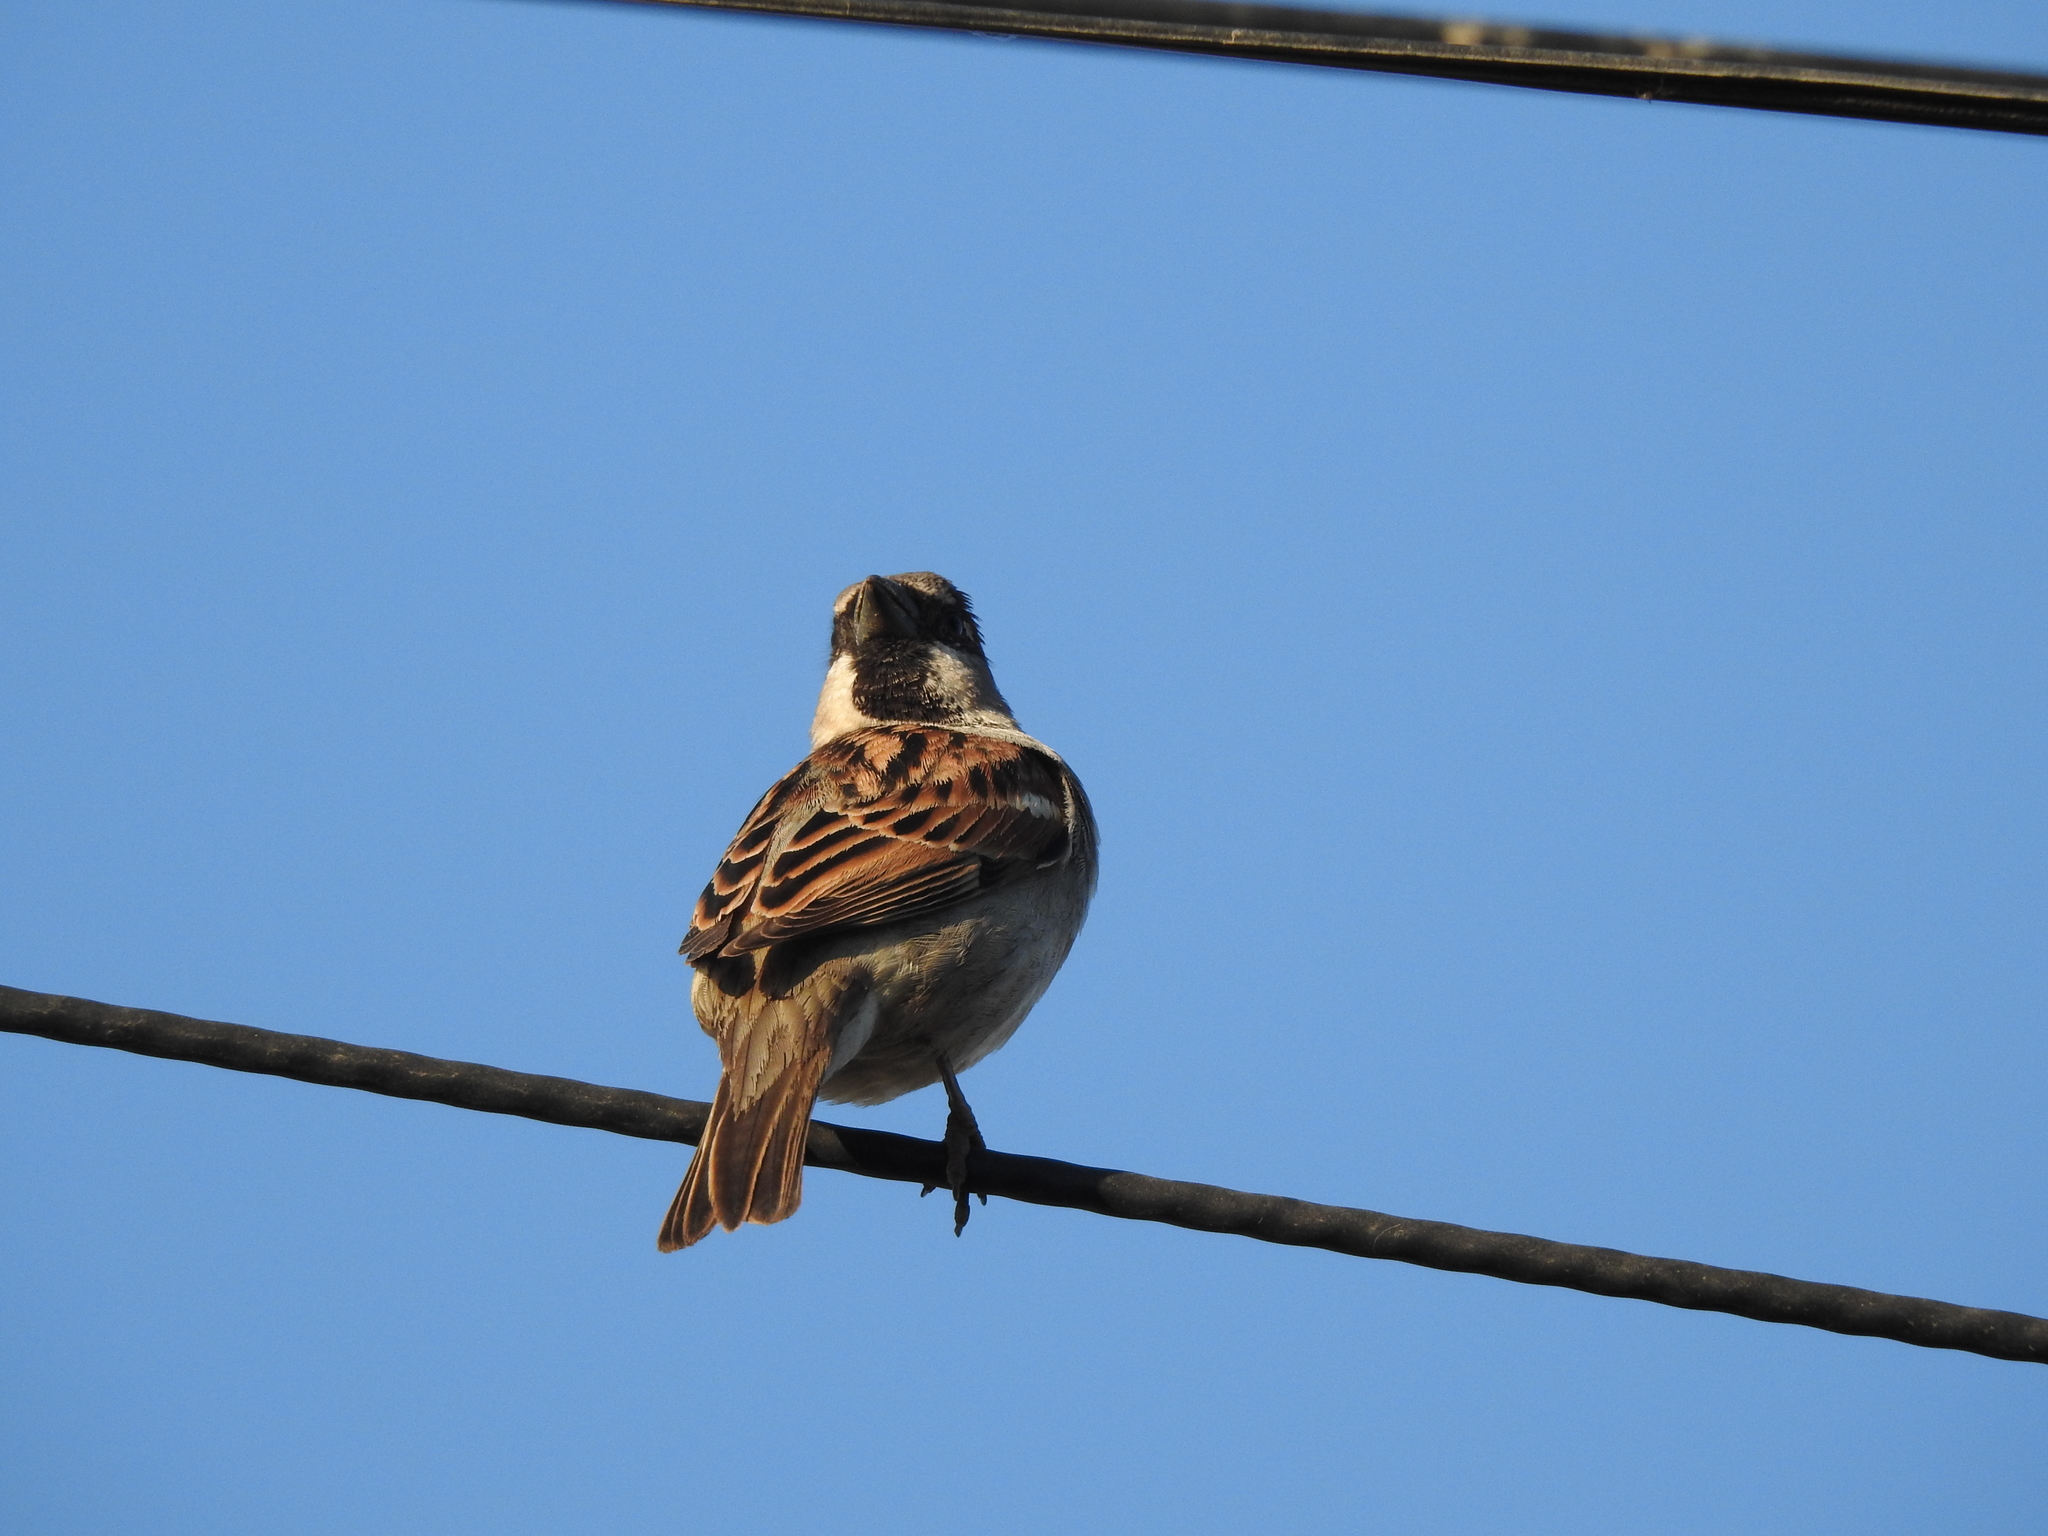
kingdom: Animalia
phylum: Chordata
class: Aves
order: Passeriformes
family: Passeridae
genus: Passer
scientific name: Passer domesticus
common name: House sparrow
